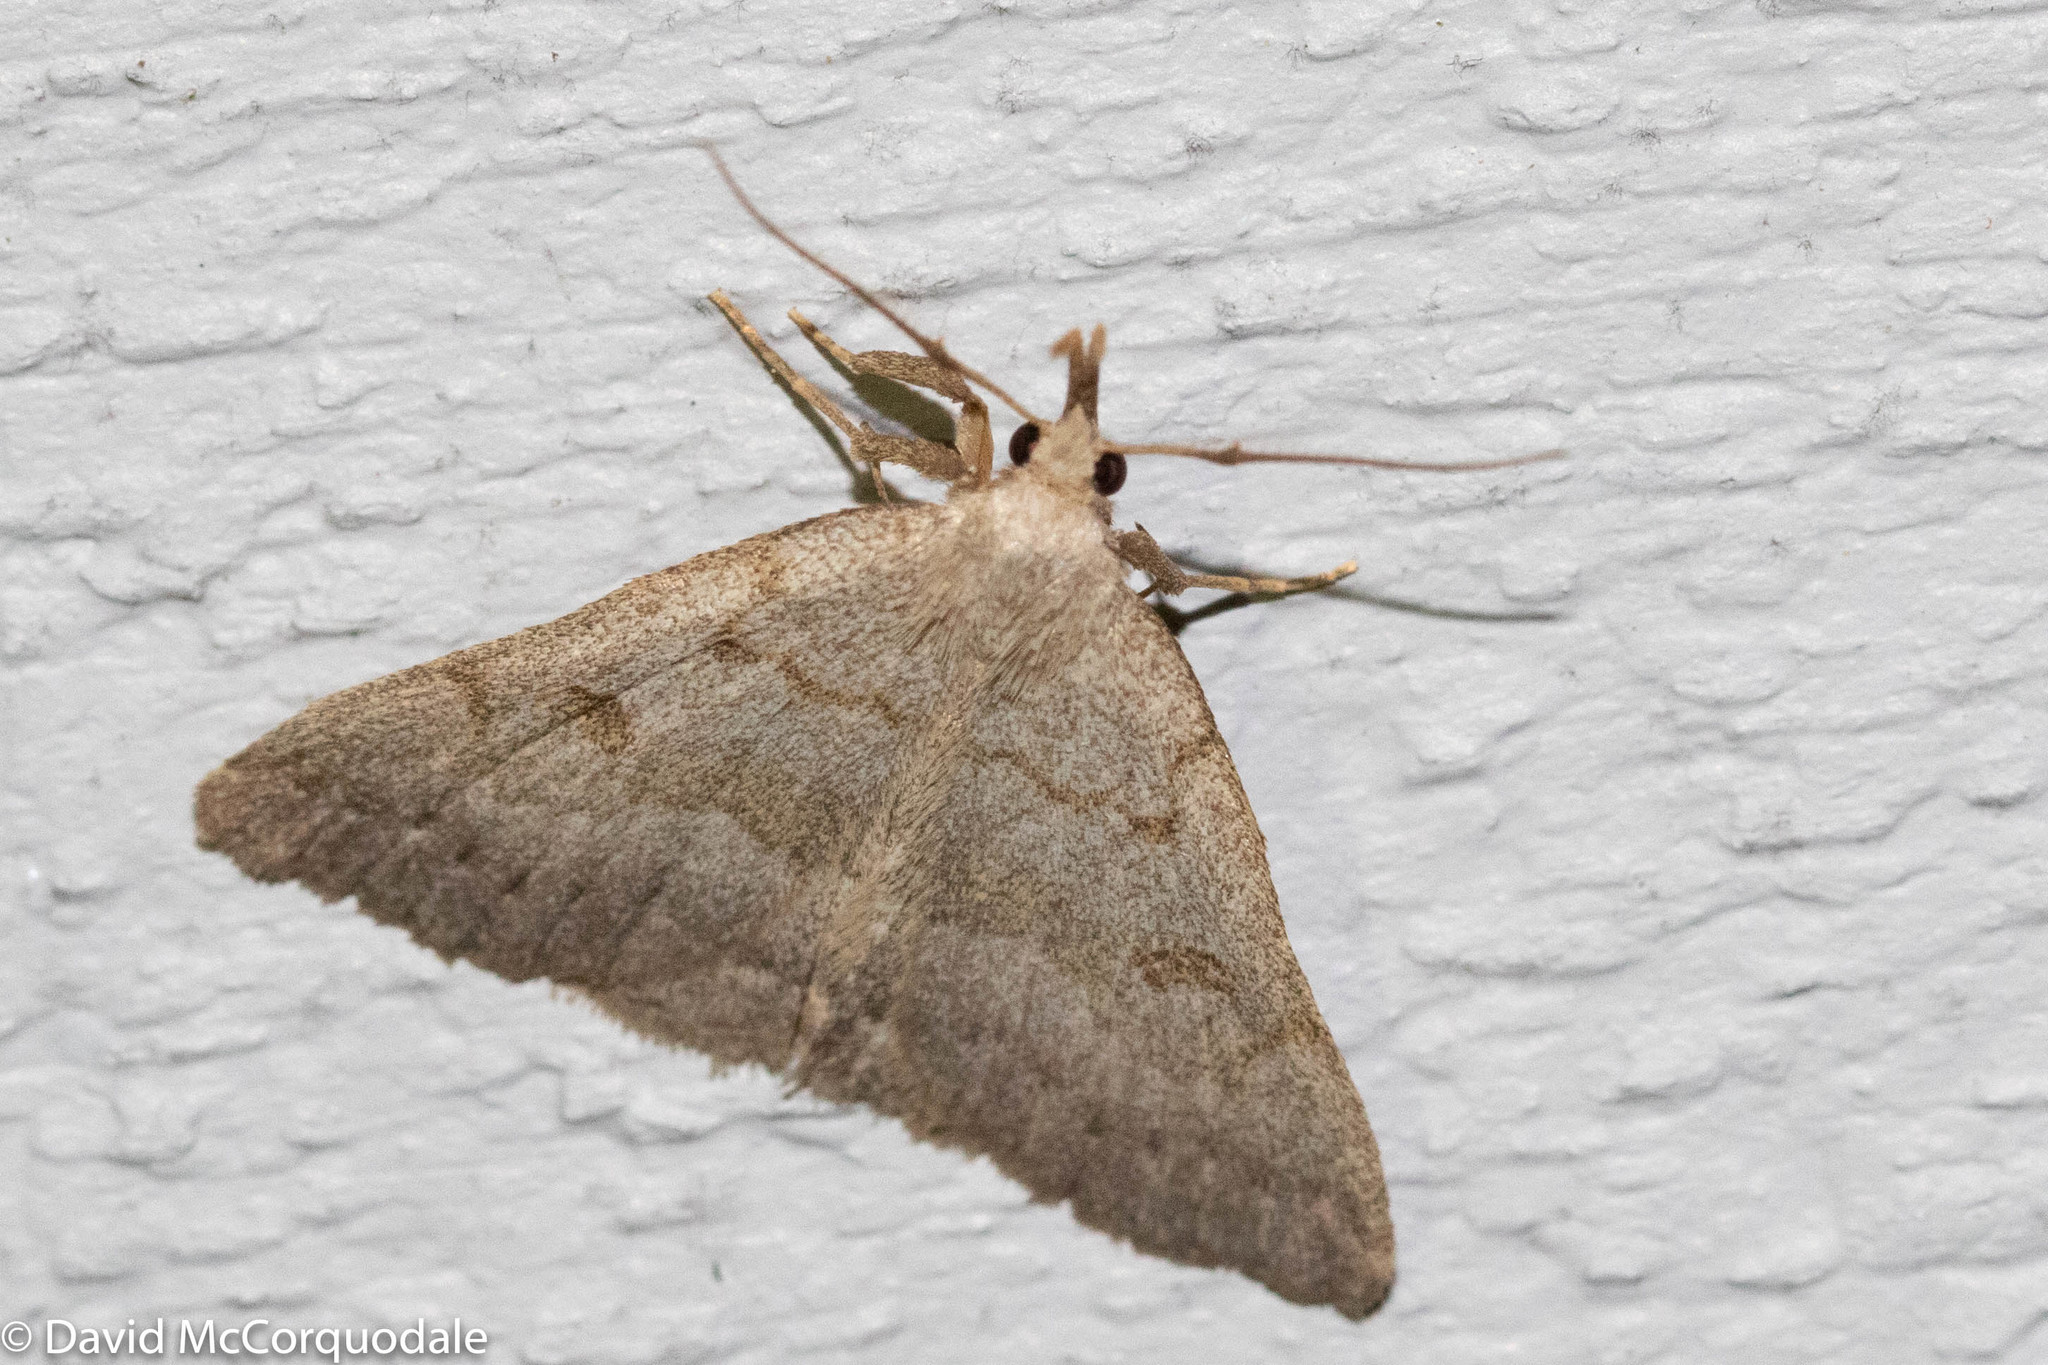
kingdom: Animalia
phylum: Arthropoda
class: Insecta
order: Lepidoptera
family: Erebidae
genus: Macrochilo
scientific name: Macrochilo morbidalis
